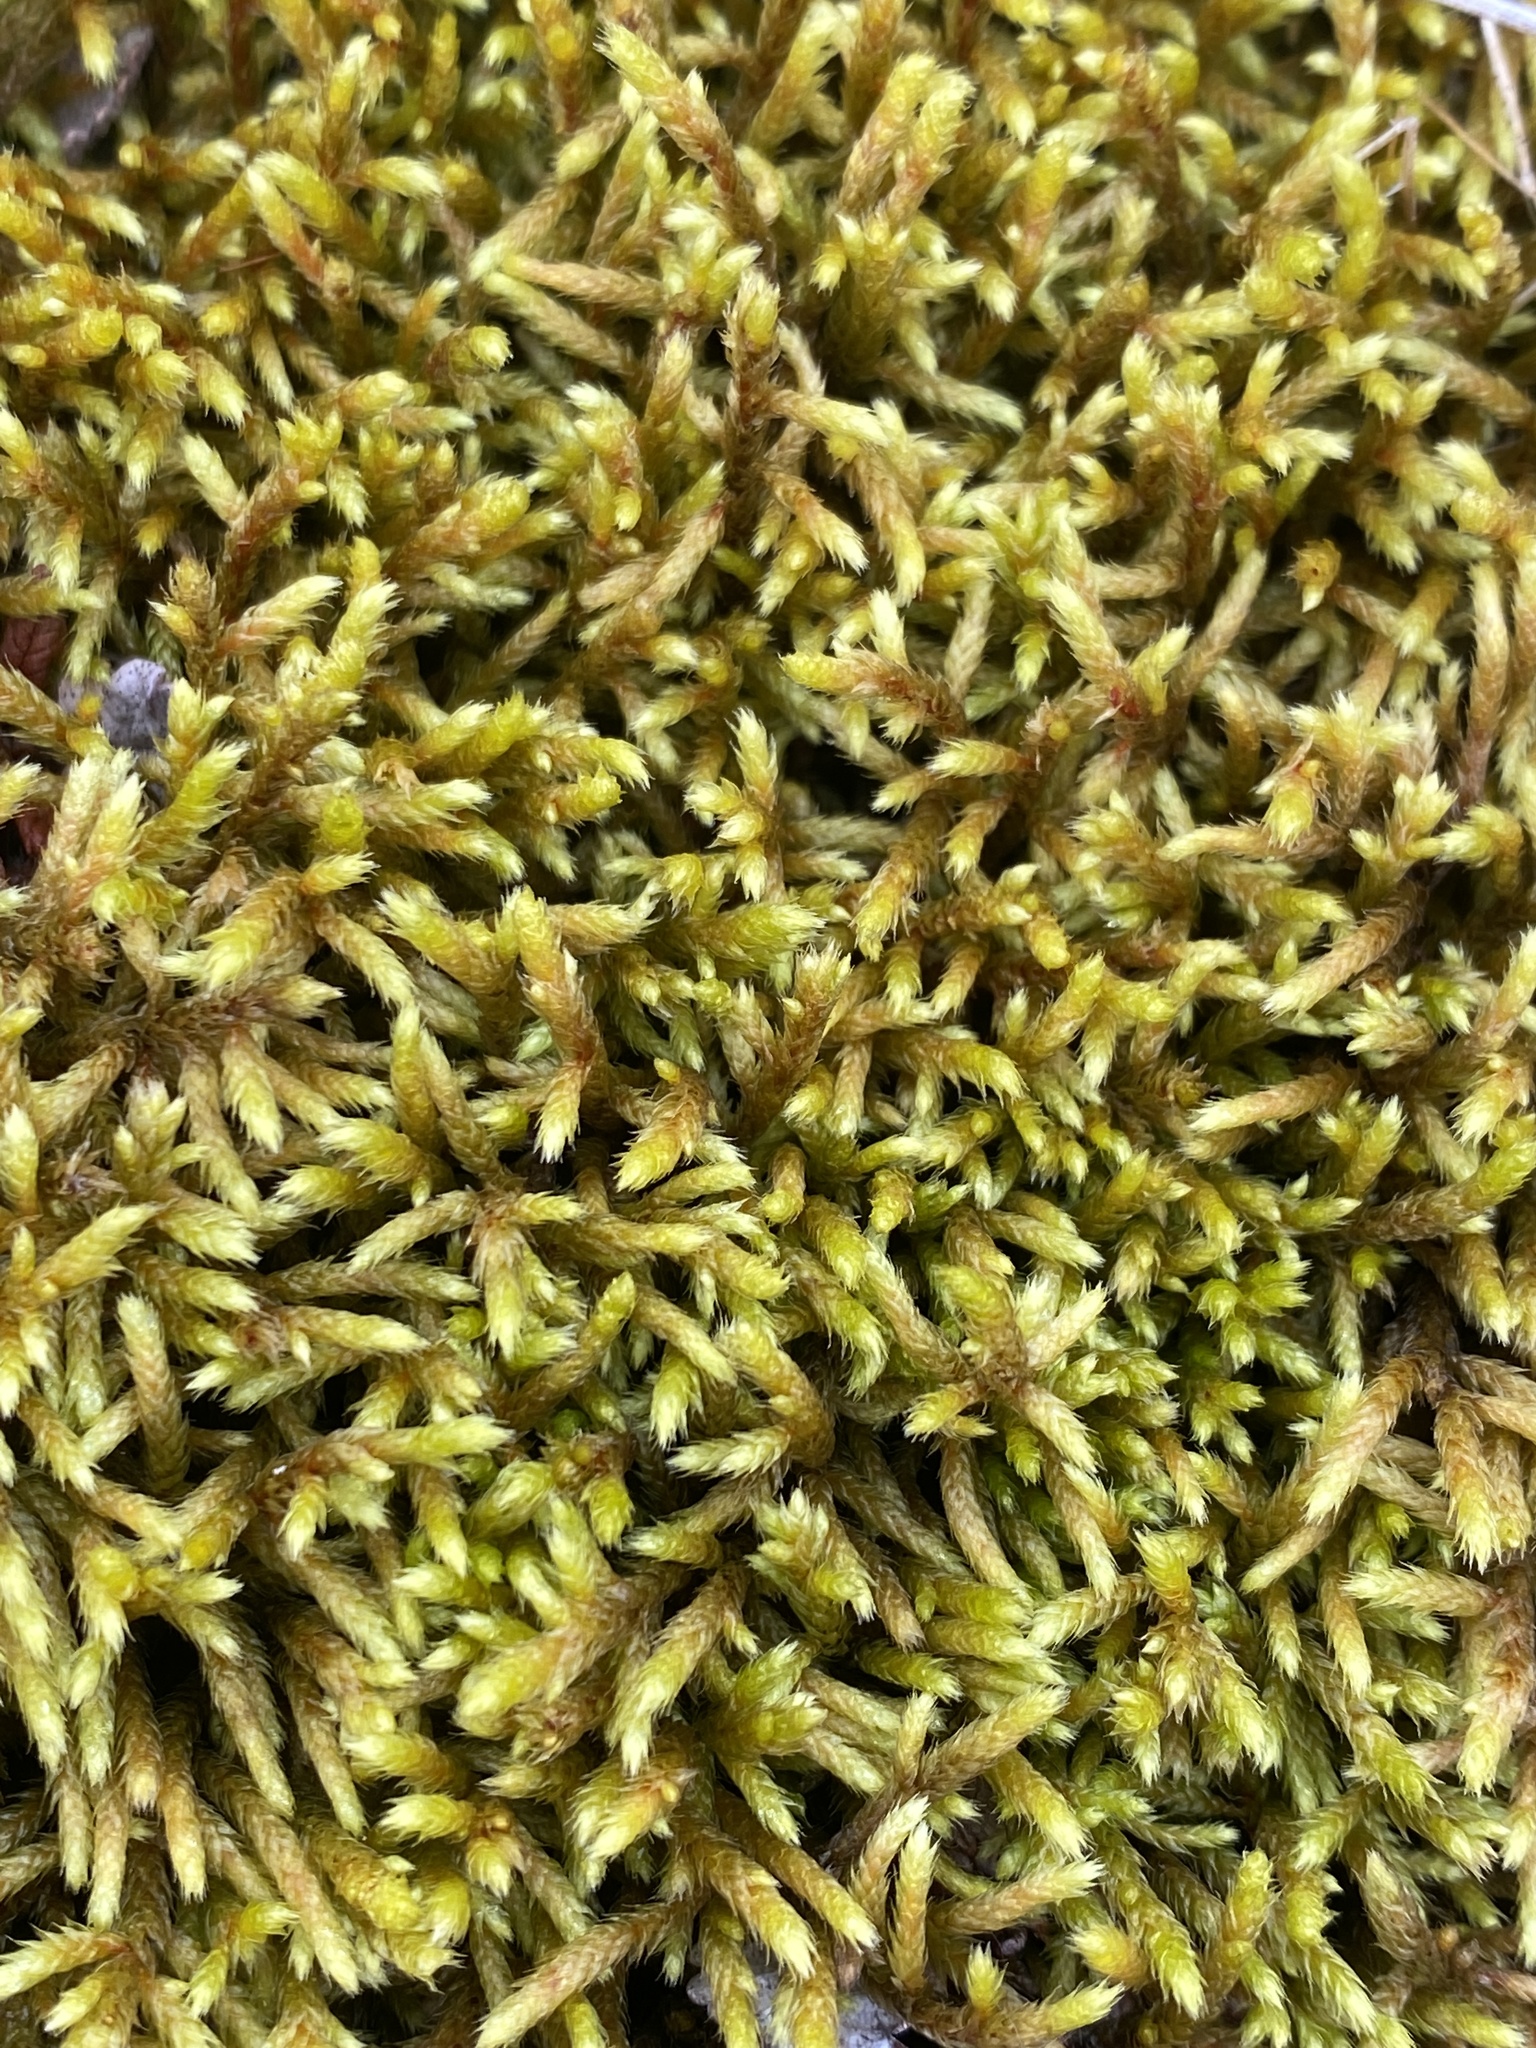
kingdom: Plantae
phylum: Bryophyta
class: Bryopsida
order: Hypnales
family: Rhytidiaceae
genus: Rhytidium
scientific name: Rhytidium rugosum
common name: Wrinkle-leaved moss
